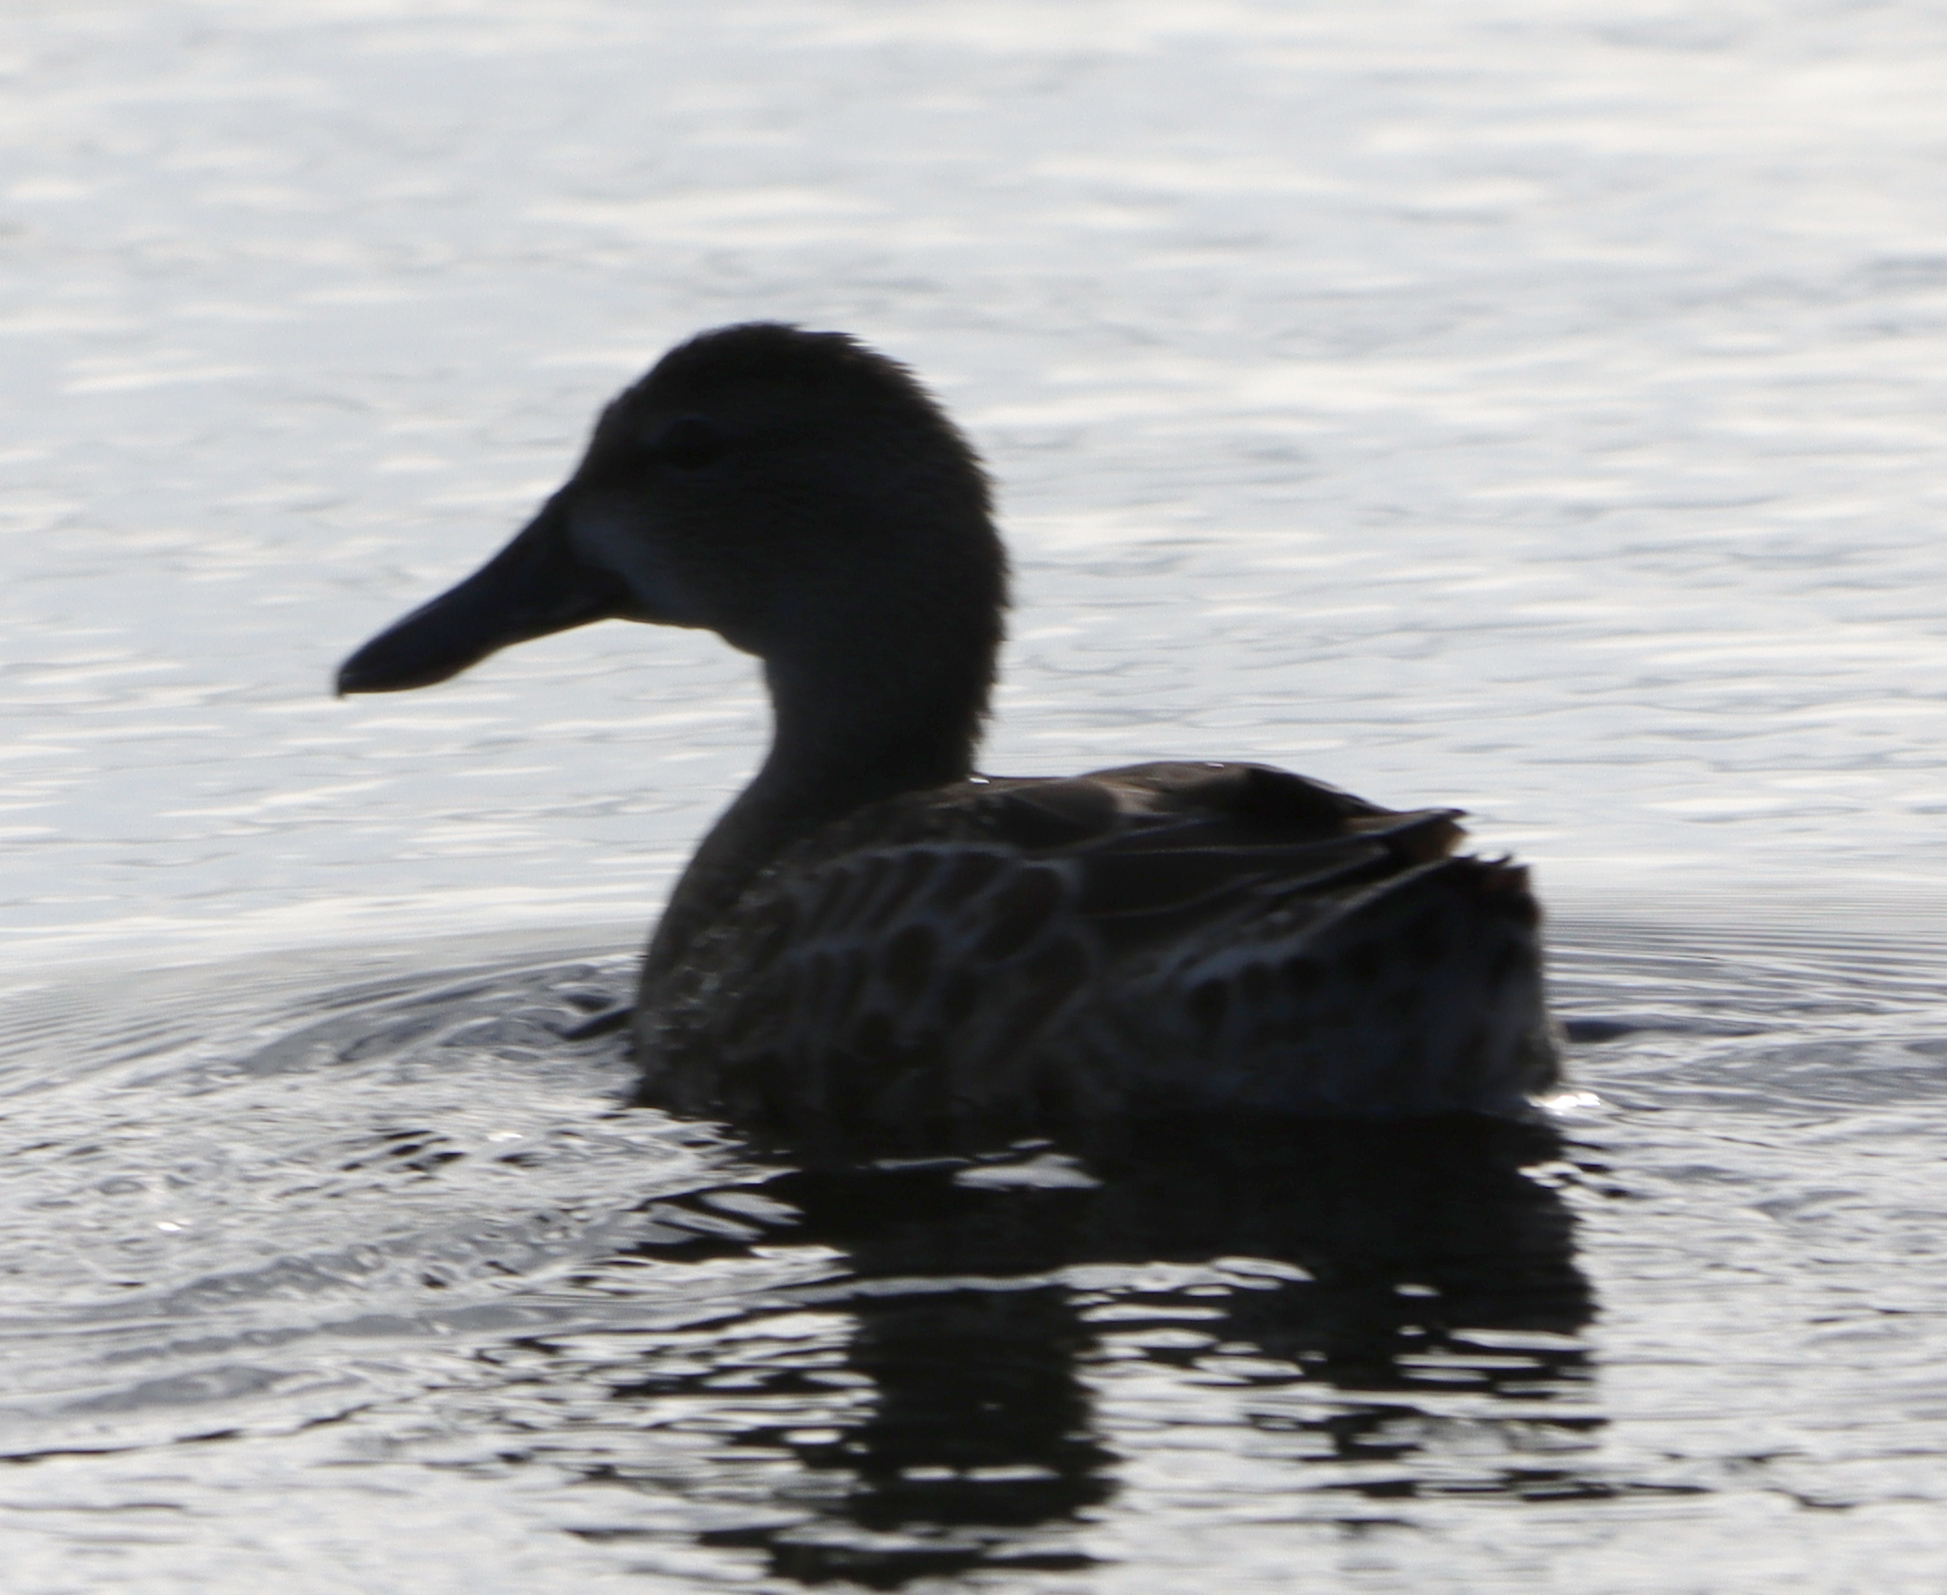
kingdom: Animalia
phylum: Chordata
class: Aves
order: Anseriformes
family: Anatidae
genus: Spatula
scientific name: Spatula discors
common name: Blue-winged teal
